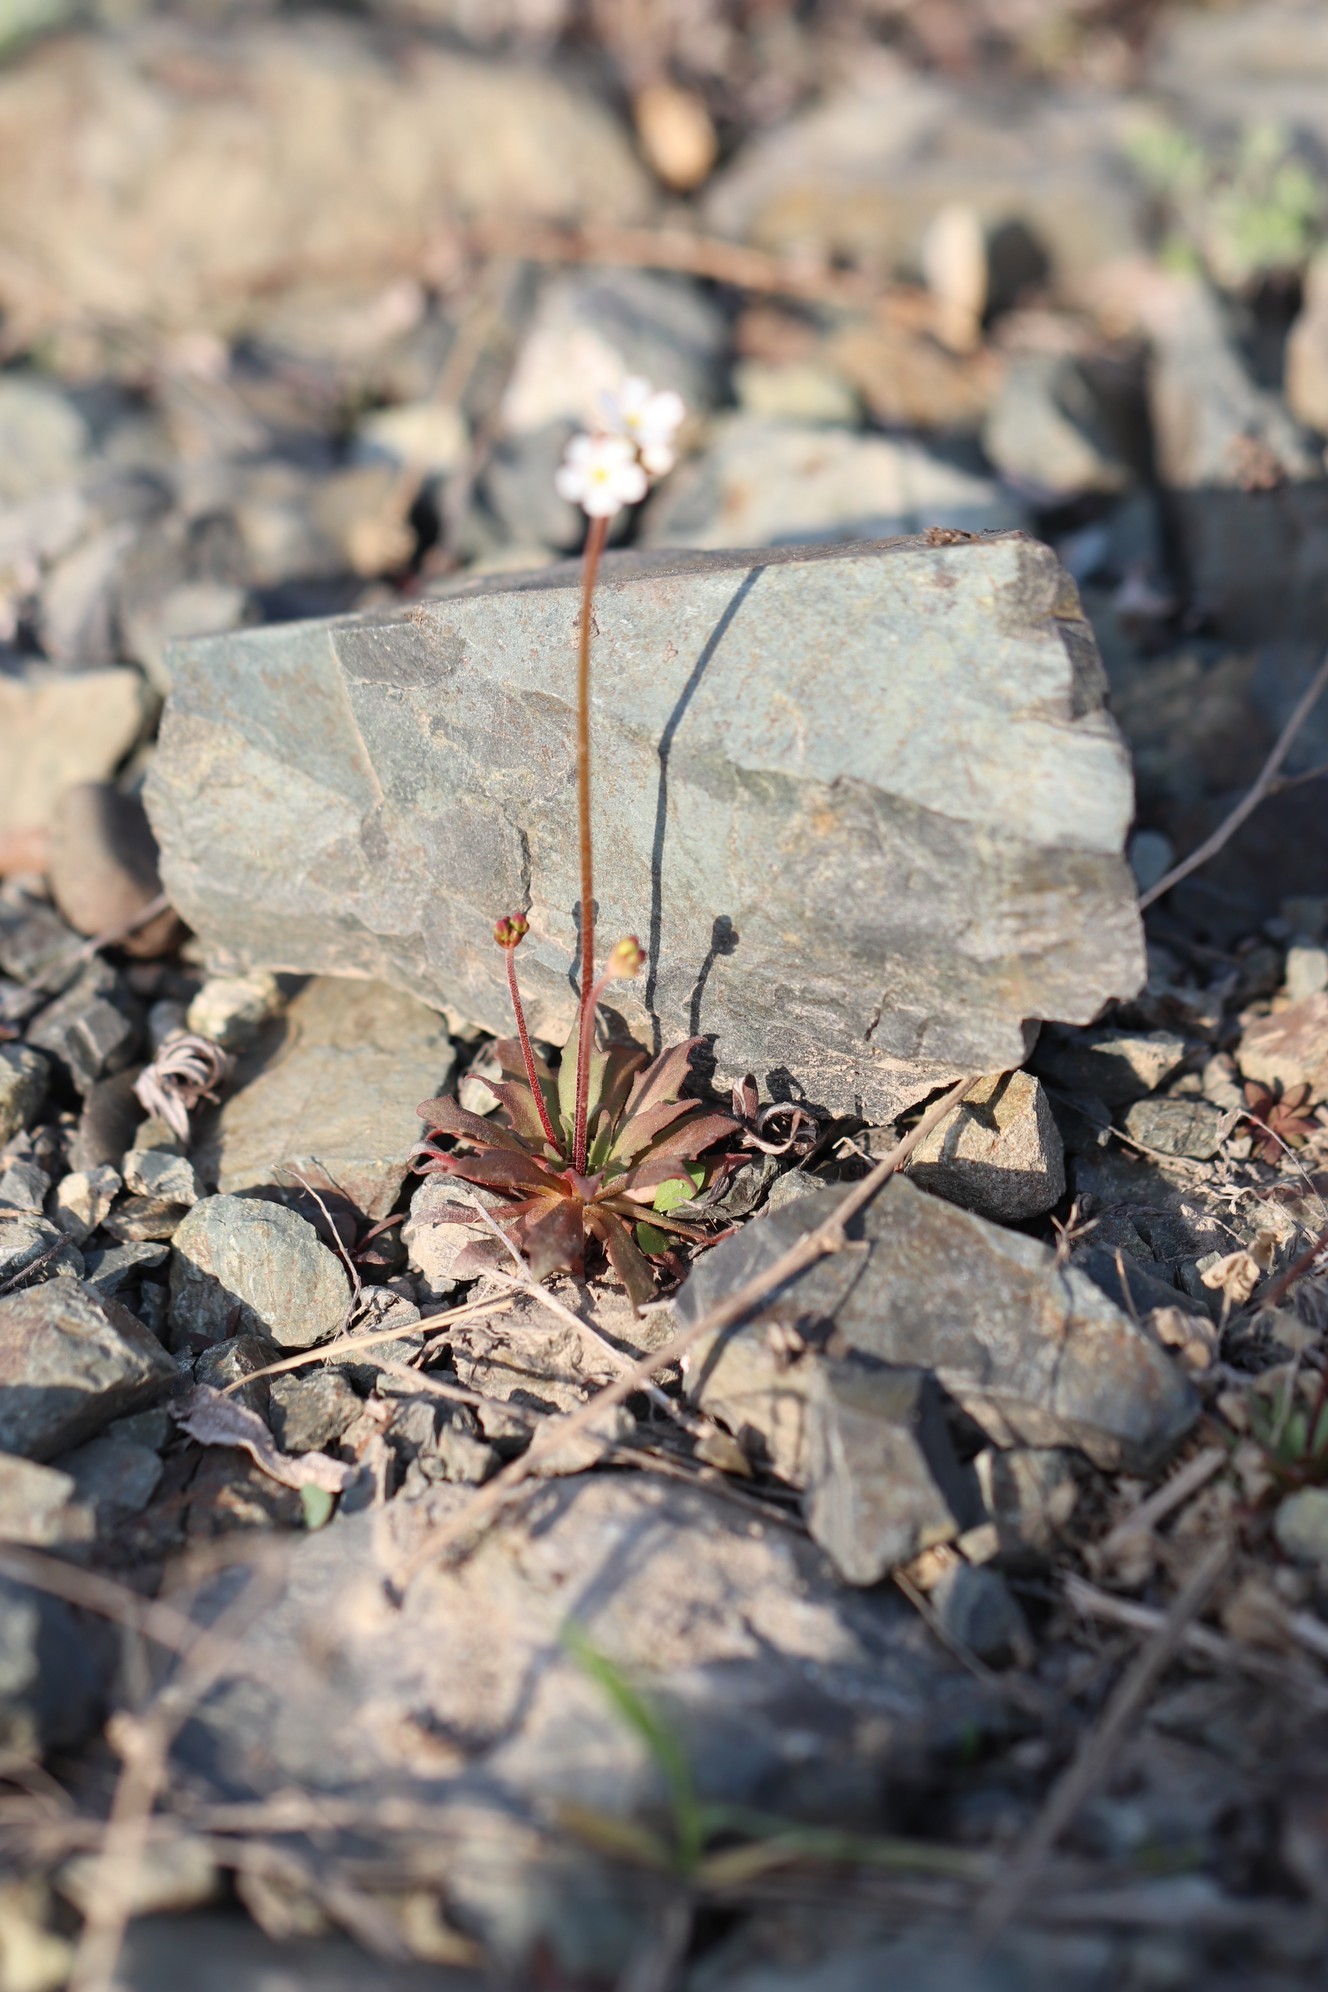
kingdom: Plantae
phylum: Tracheophyta
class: Magnoliopsida
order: Ericales
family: Primulaceae
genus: Androsace
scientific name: Androsace septentrionalis
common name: Hairy northern fairy-candelabra
